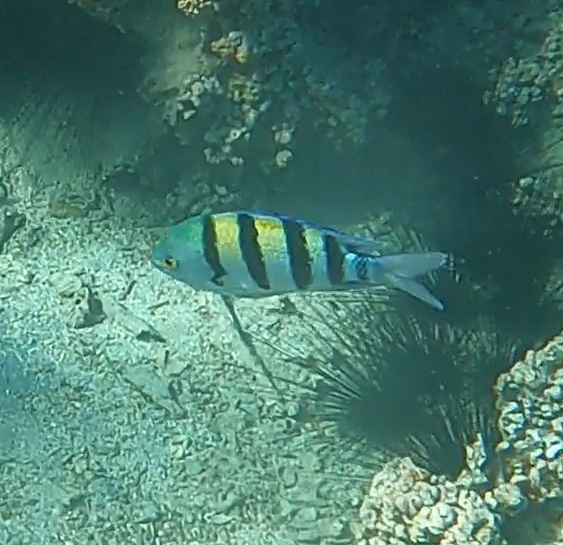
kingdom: Animalia
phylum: Chordata
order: Perciformes
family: Pomacentridae
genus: Abudefduf
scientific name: Abudefduf vaigiensis
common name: Indo-pacific sergeant
